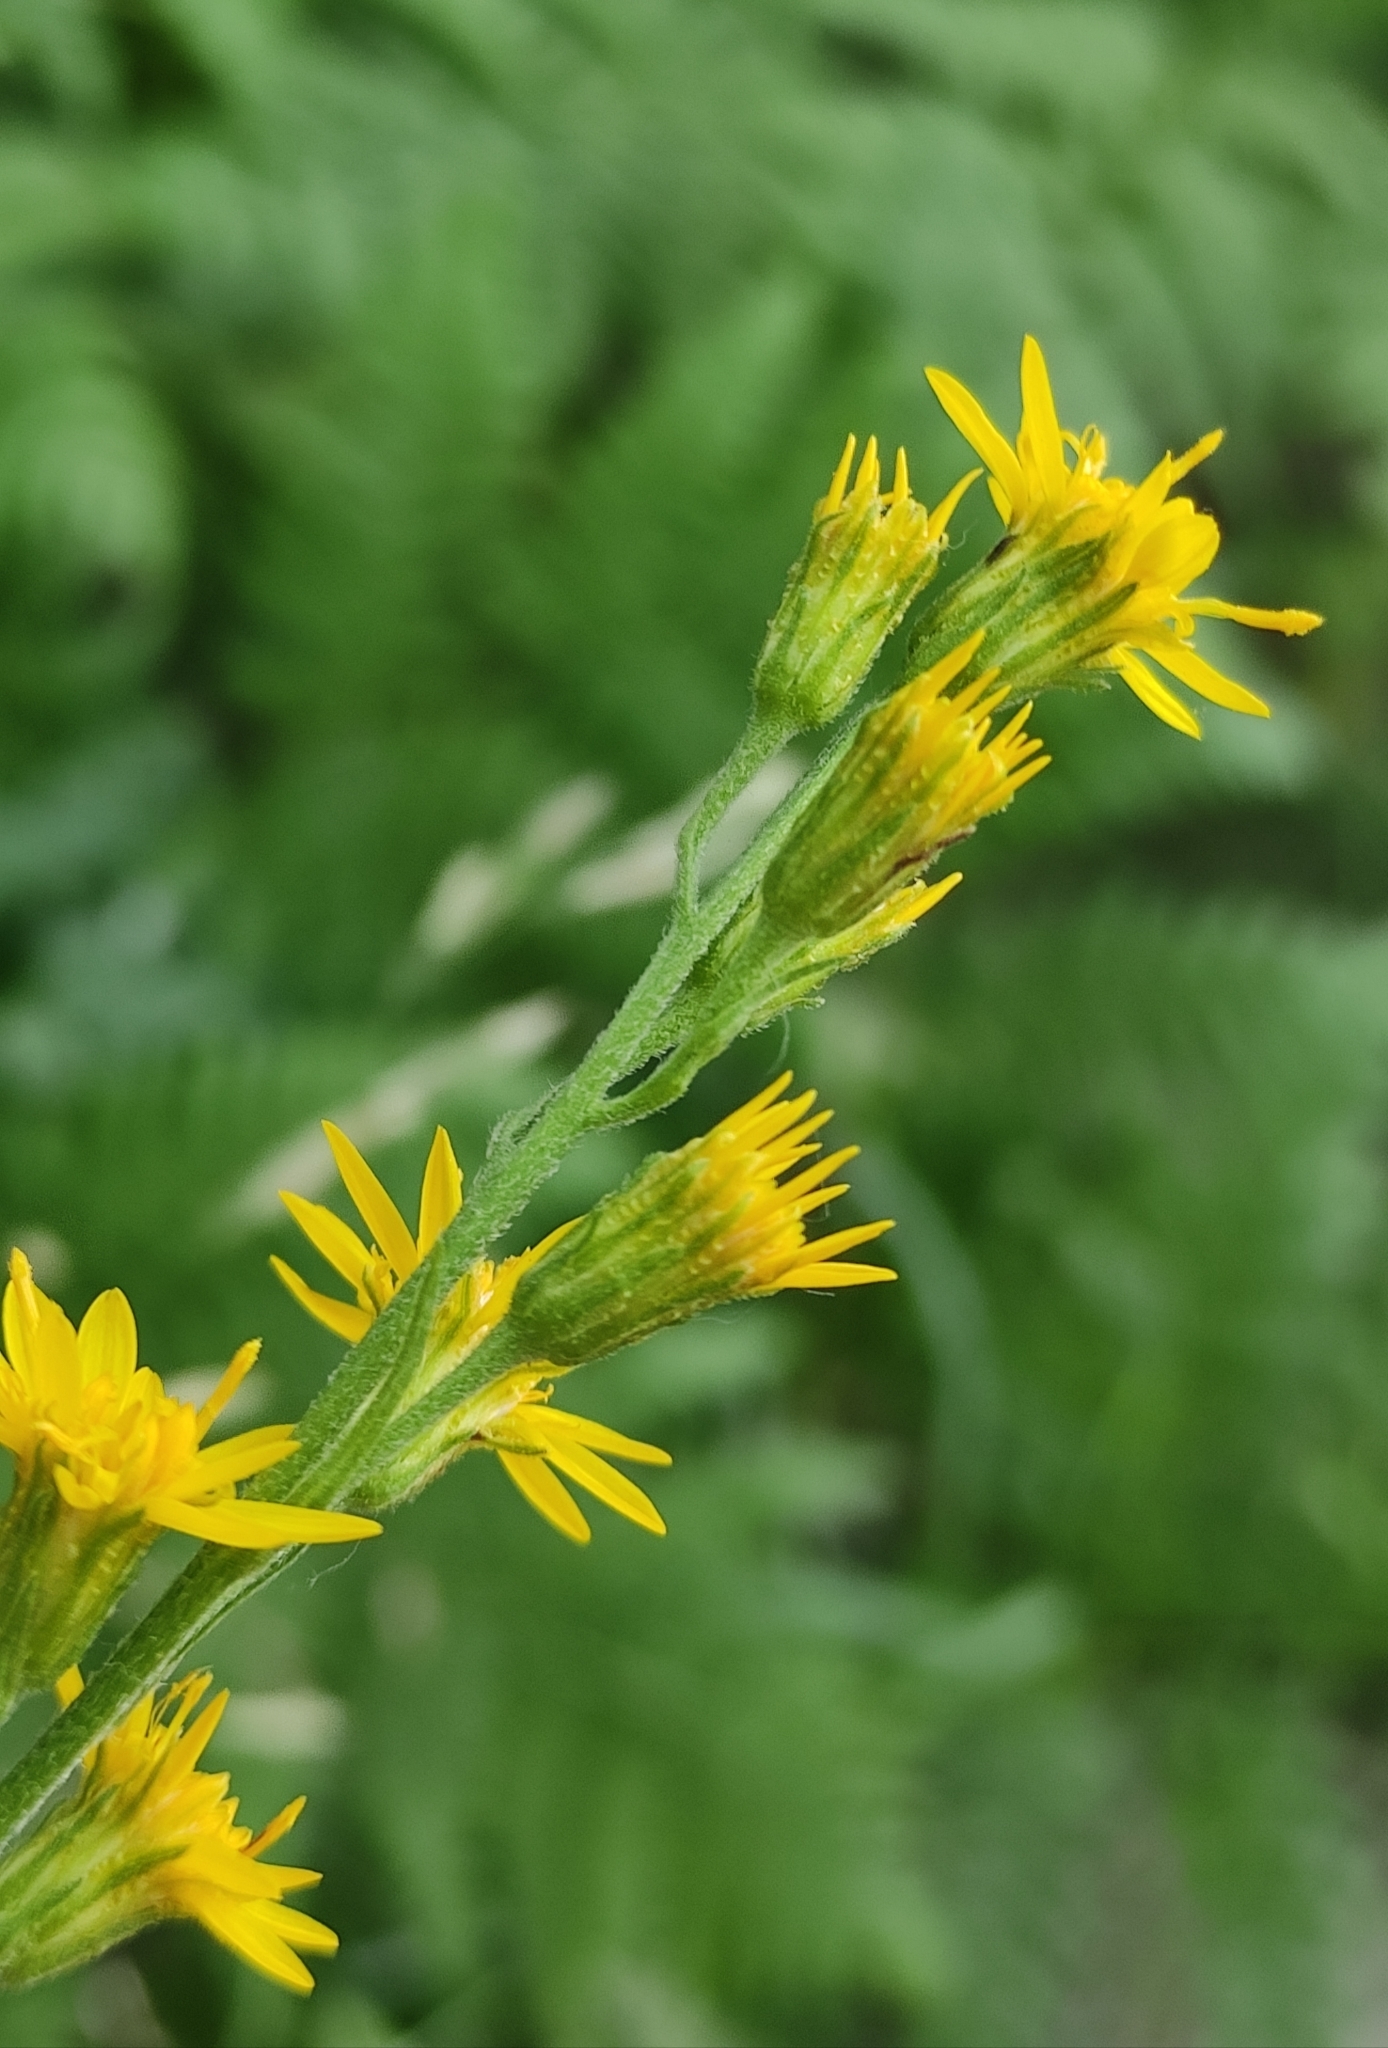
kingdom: Plantae
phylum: Tracheophyta
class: Magnoliopsida
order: Asterales
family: Asteraceae
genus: Solidago
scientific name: Solidago dahurica
